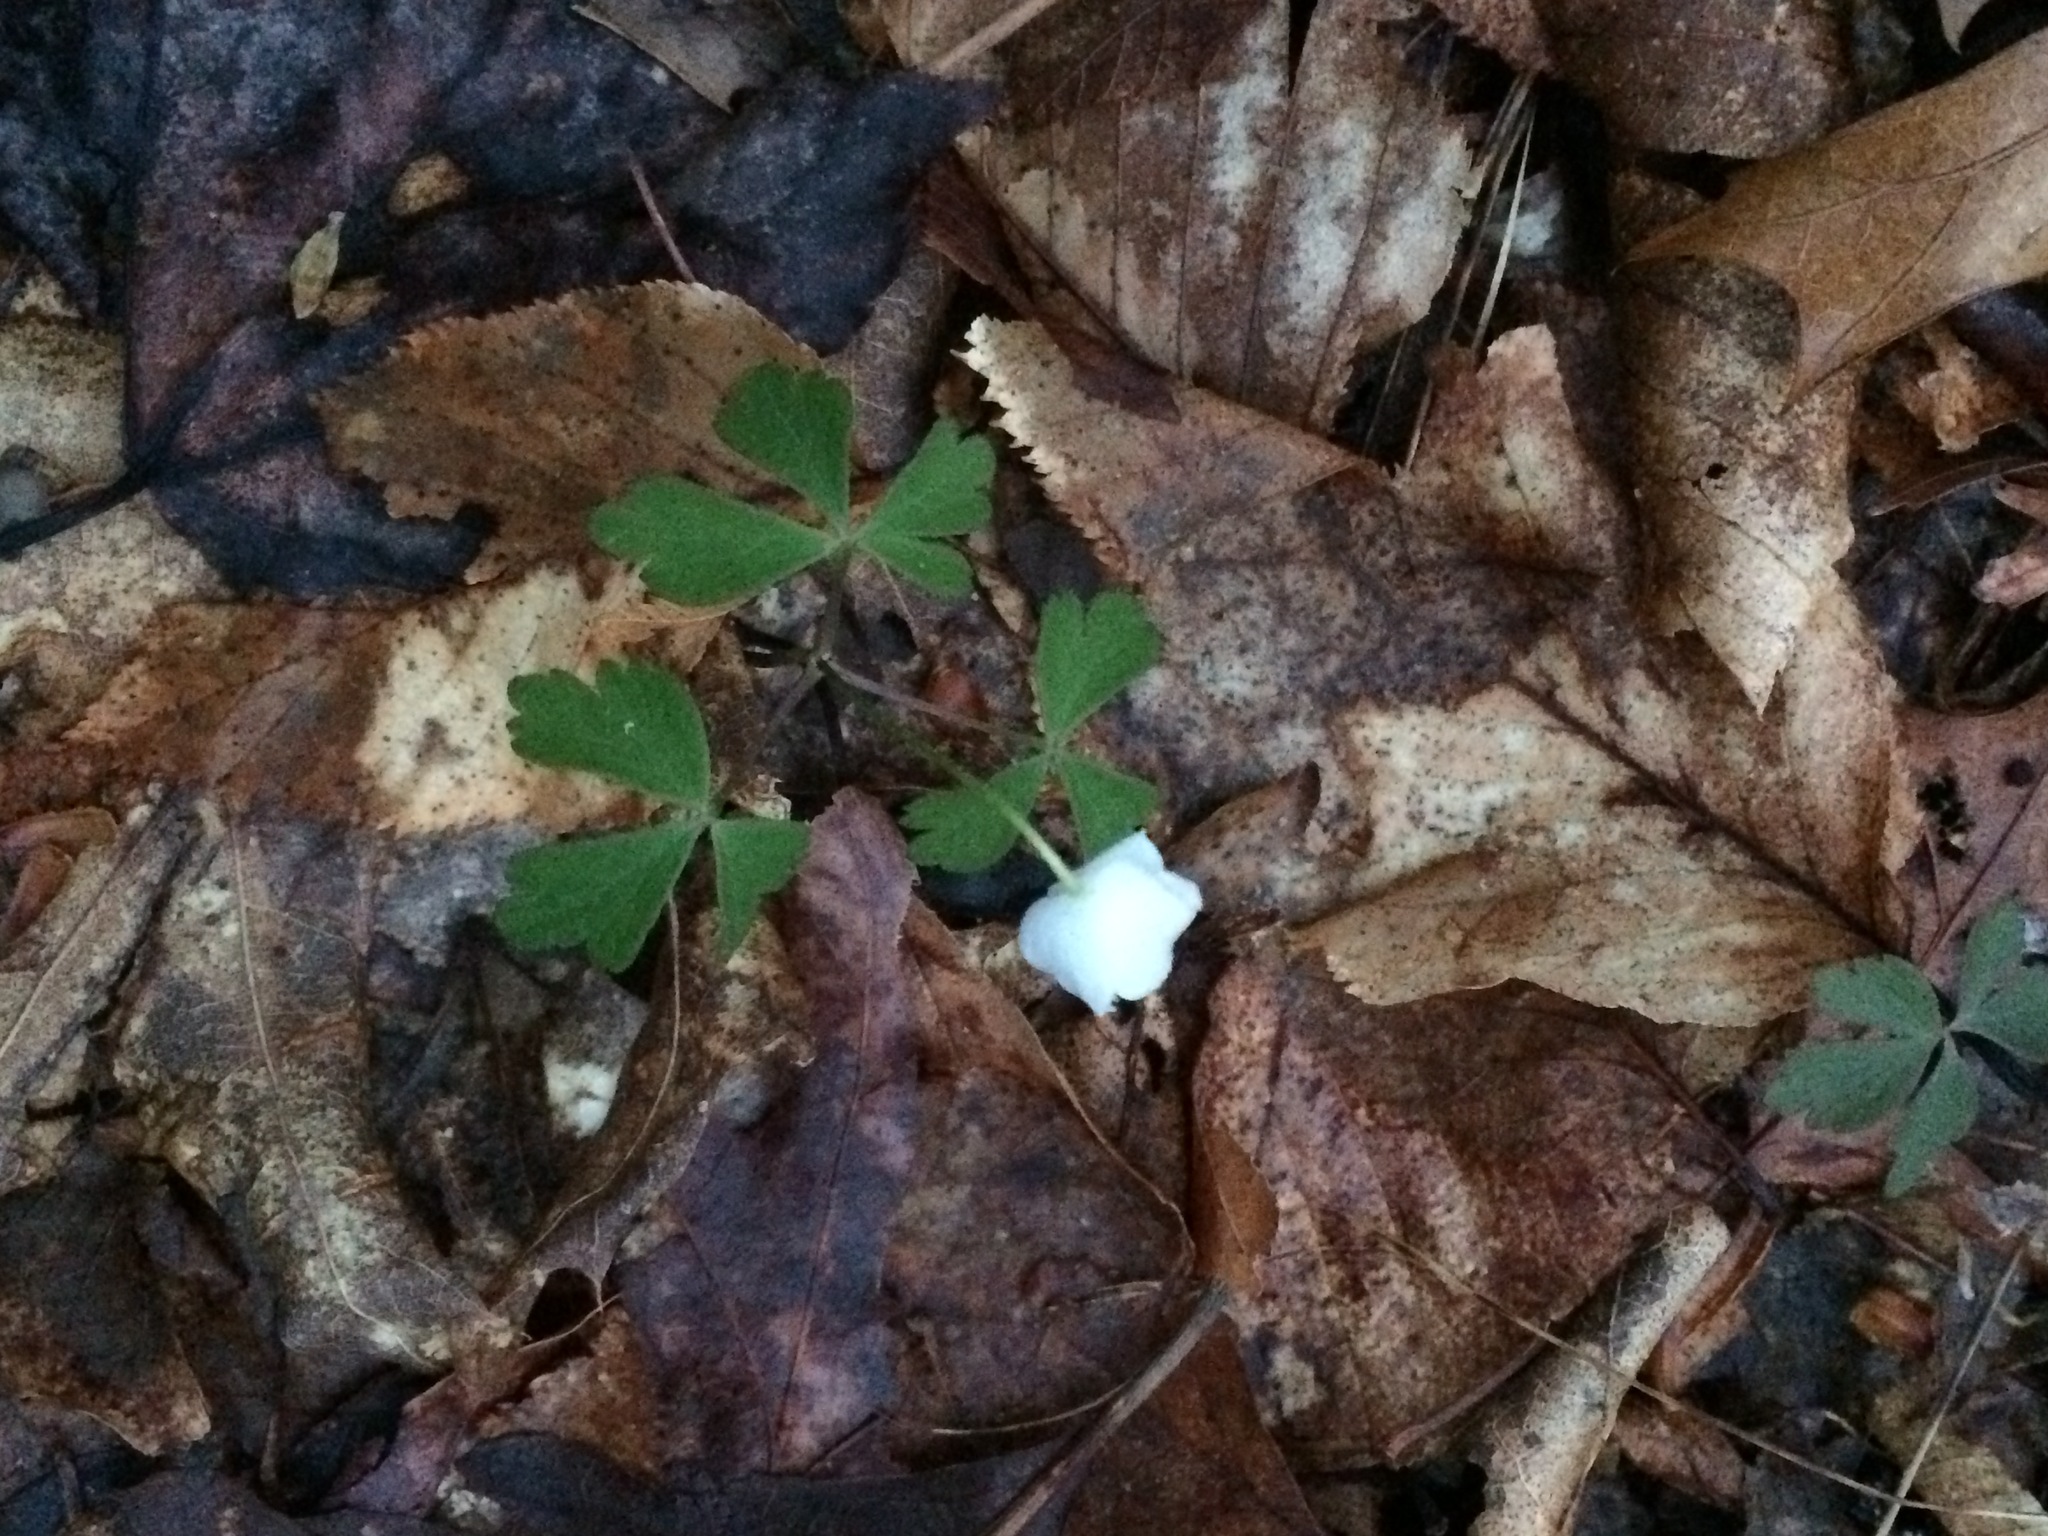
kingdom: Plantae
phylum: Tracheophyta
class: Magnoliopsida
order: Ranunculales
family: Ranunculaceae
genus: Anemone
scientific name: Anemone quinquefolia
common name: Wood anemone
